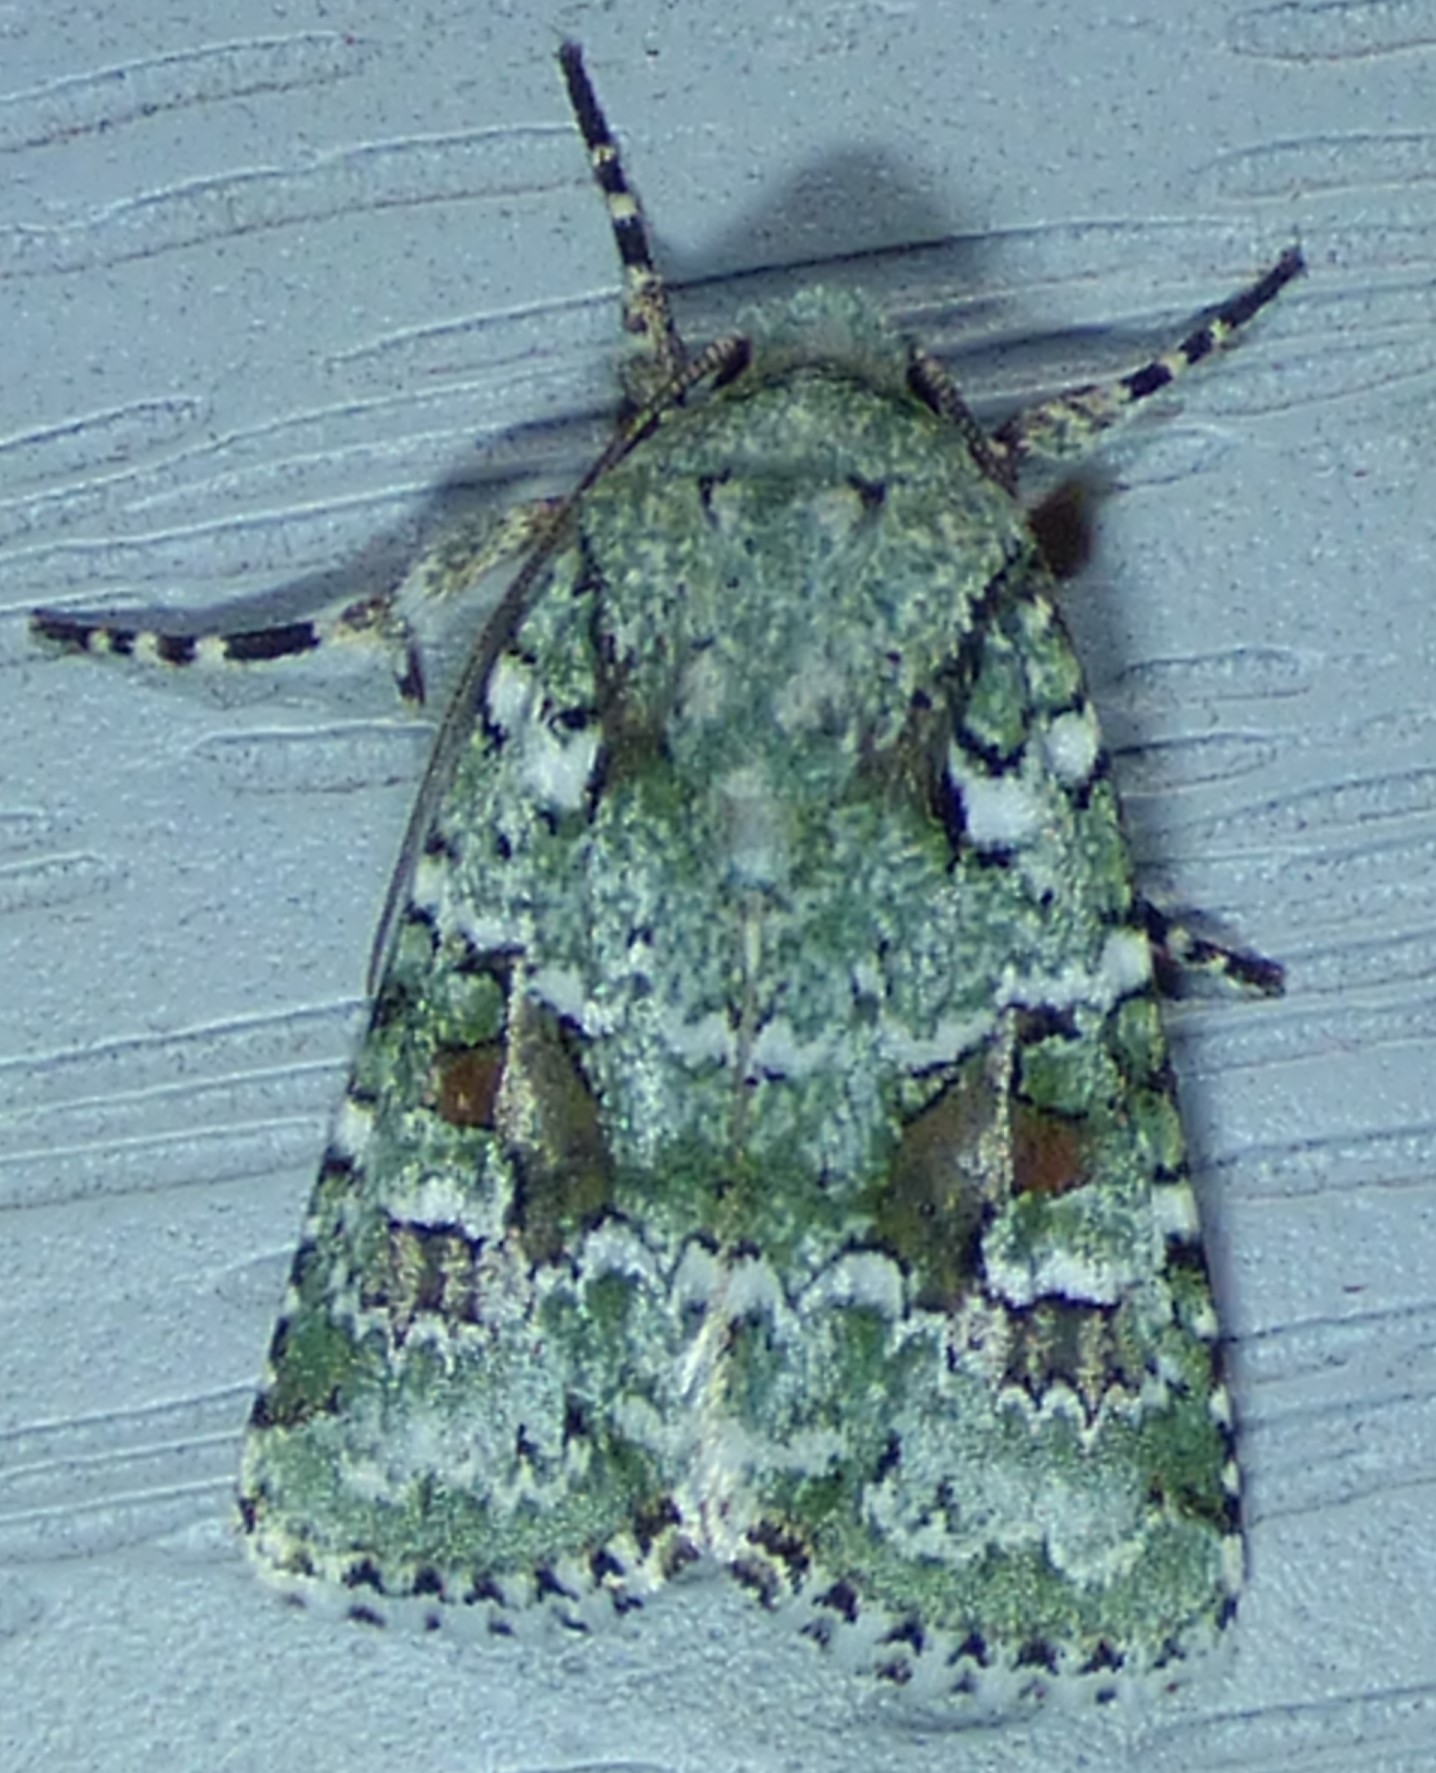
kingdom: Animalia
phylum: Arthropoda
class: Insecta
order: Lepidoptera
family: Noctuidae
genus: Lacinipolia
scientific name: Lacinipolia laudabilis
